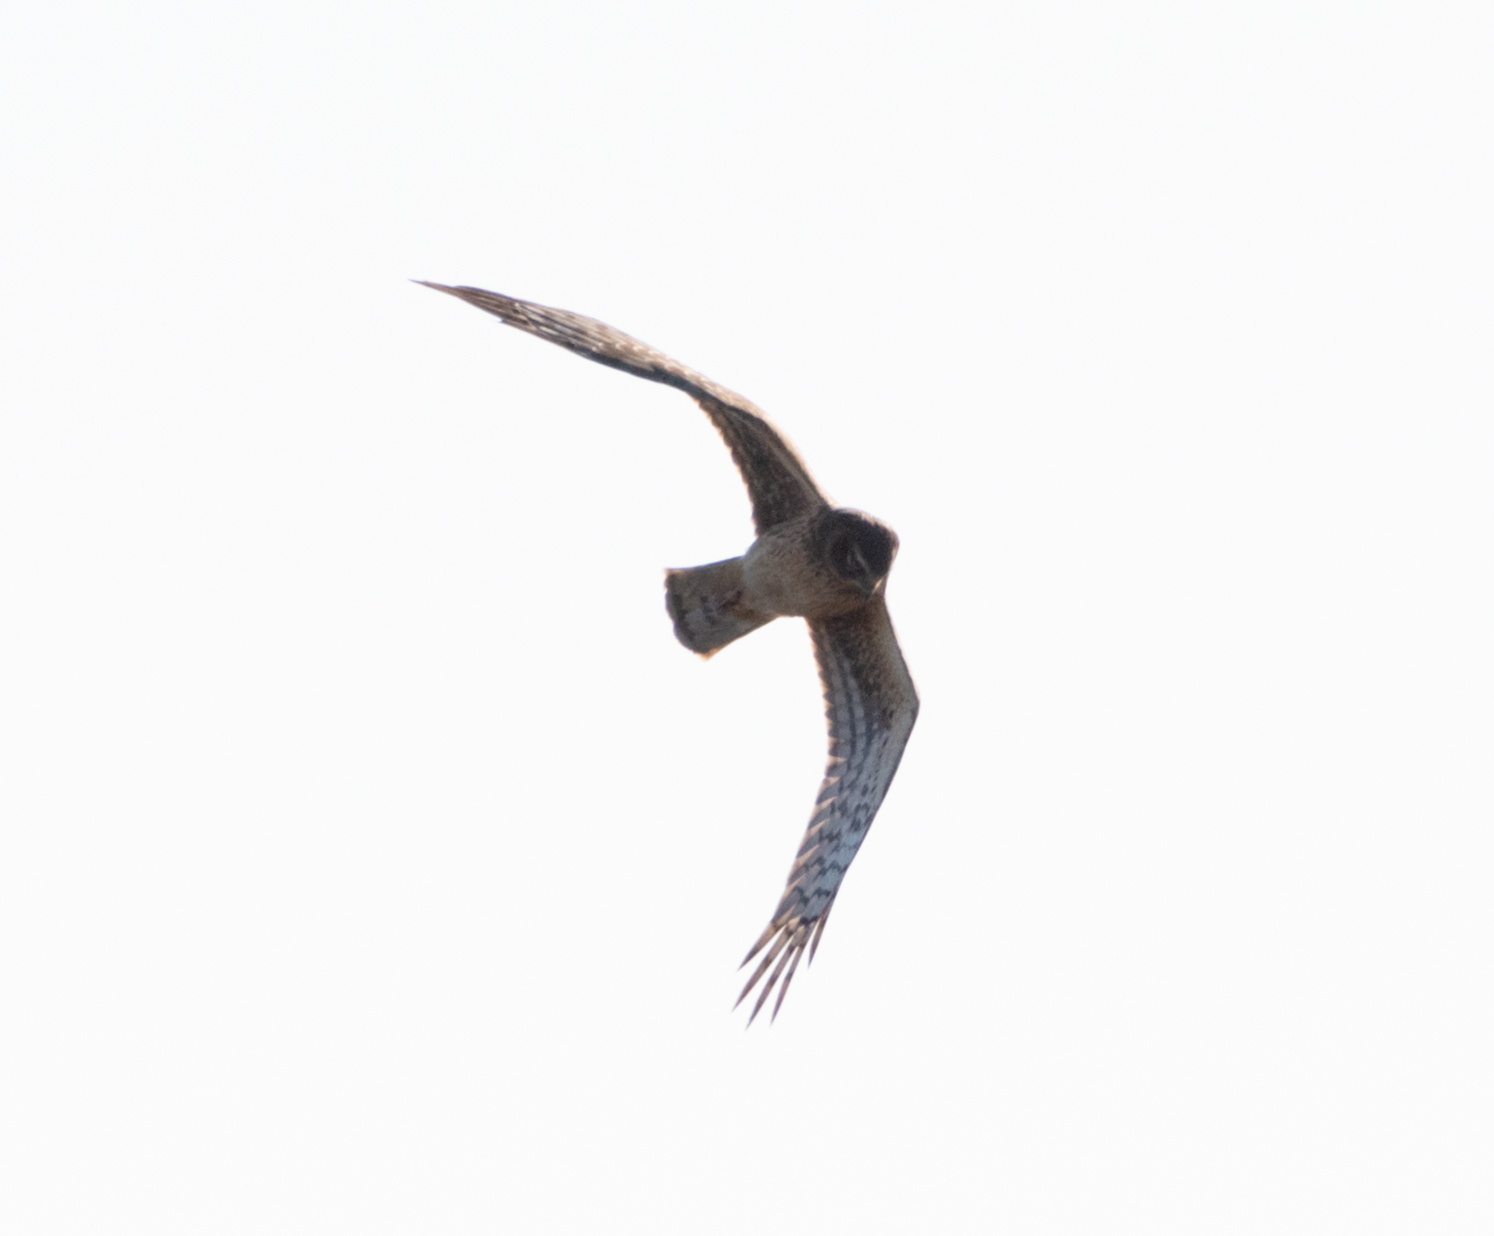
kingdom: Animalia
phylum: Chordata
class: Aves
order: Accipitriformes
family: Accipitridae
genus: Circus
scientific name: Circus cyaneus
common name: Hen harrier
